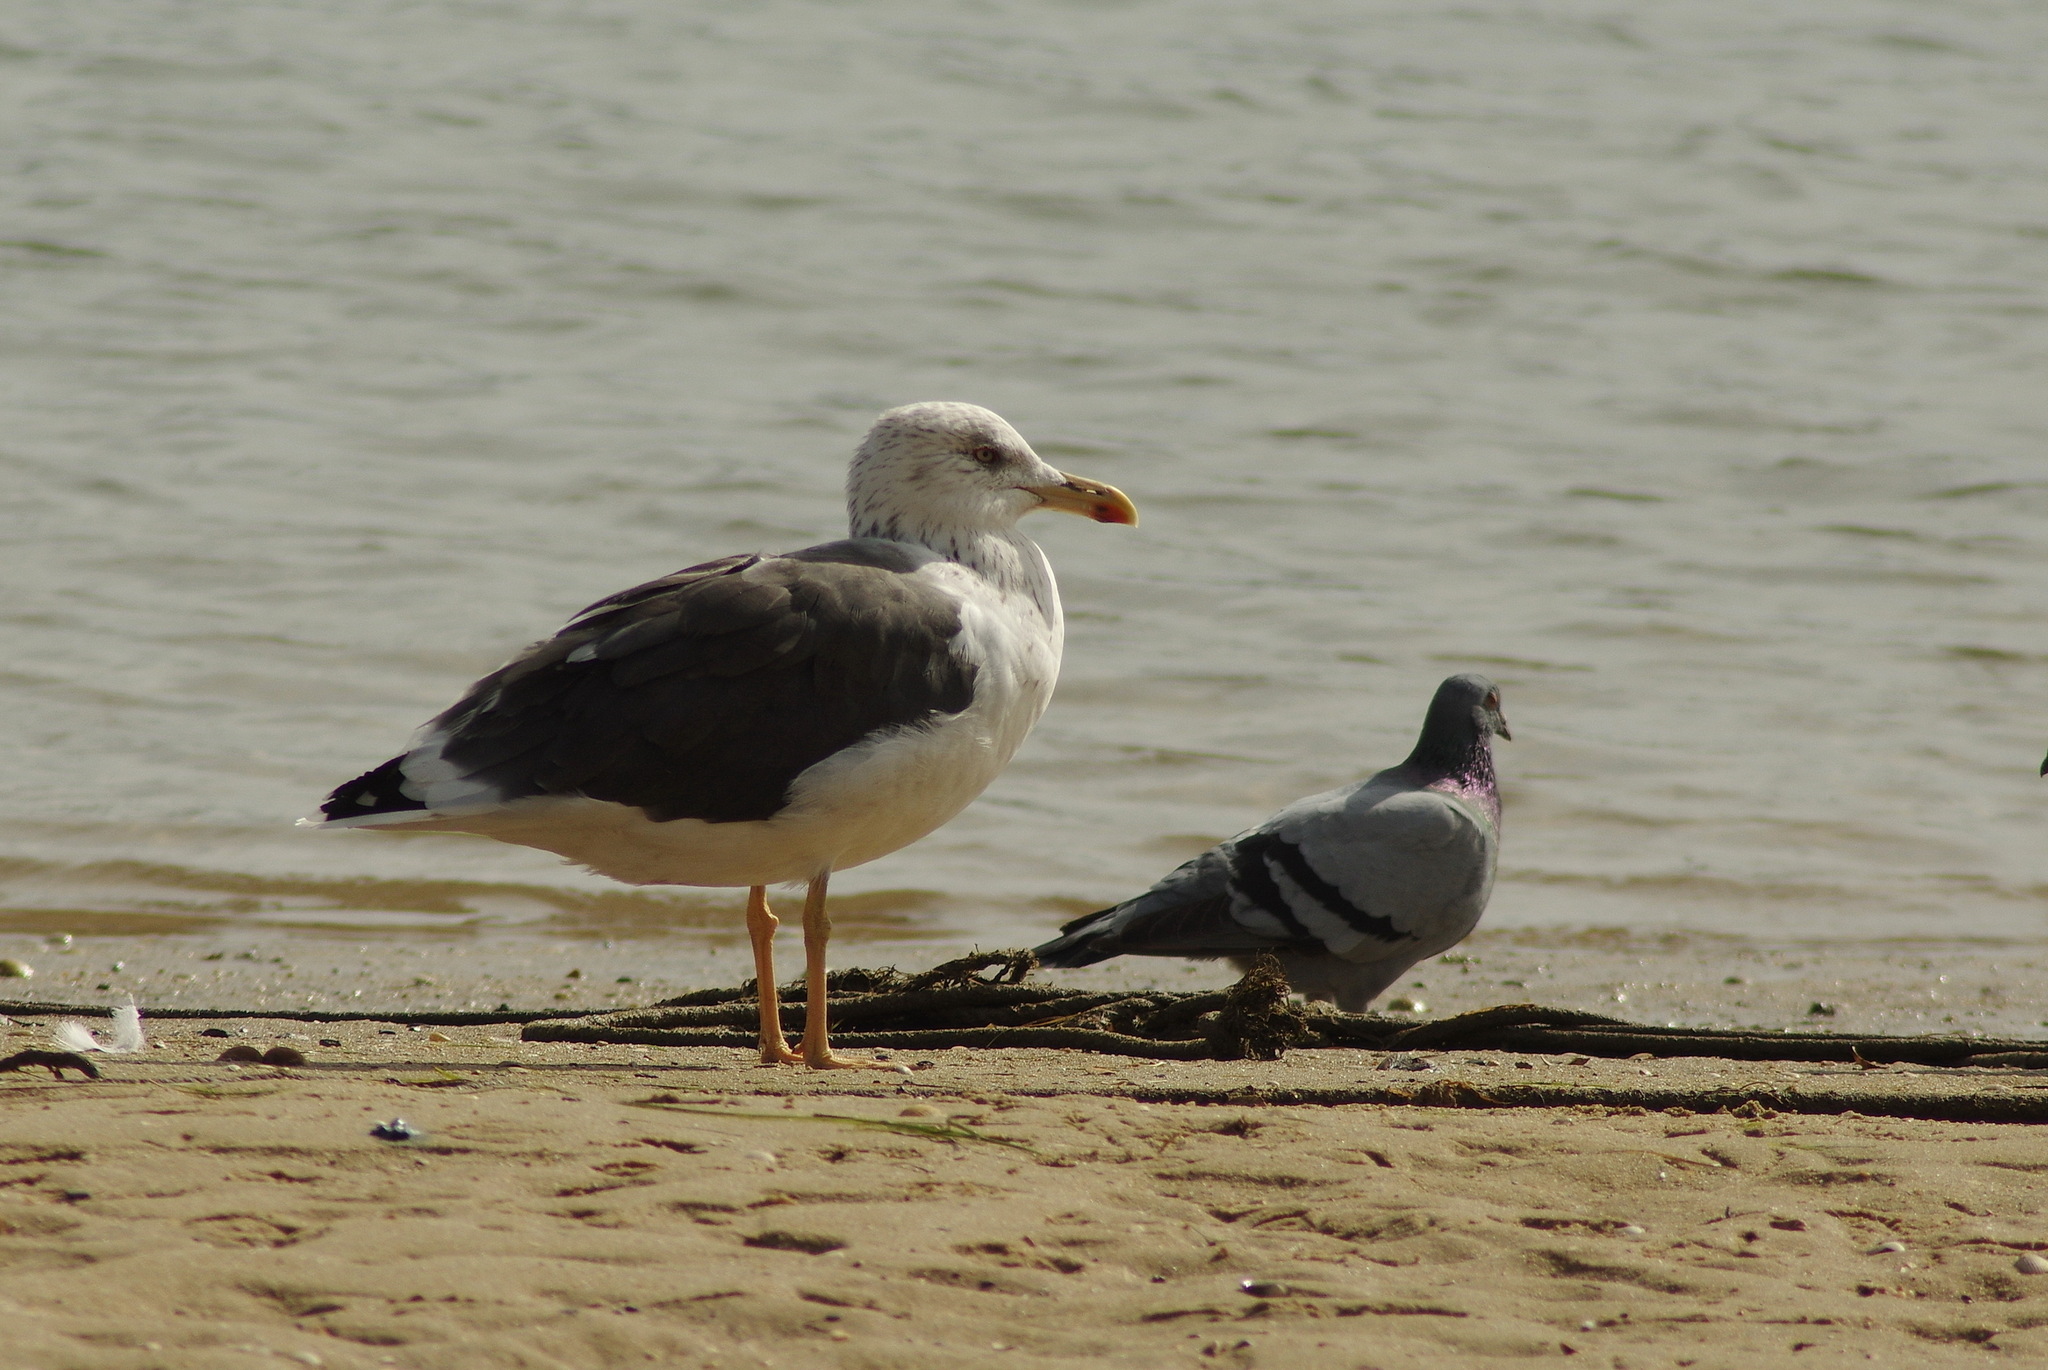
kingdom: Animalia
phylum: Chordata
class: Aves
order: Charadriiformes
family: Laridae
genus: Larus
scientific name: Larus fuscus
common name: Lesser black-backed gull
